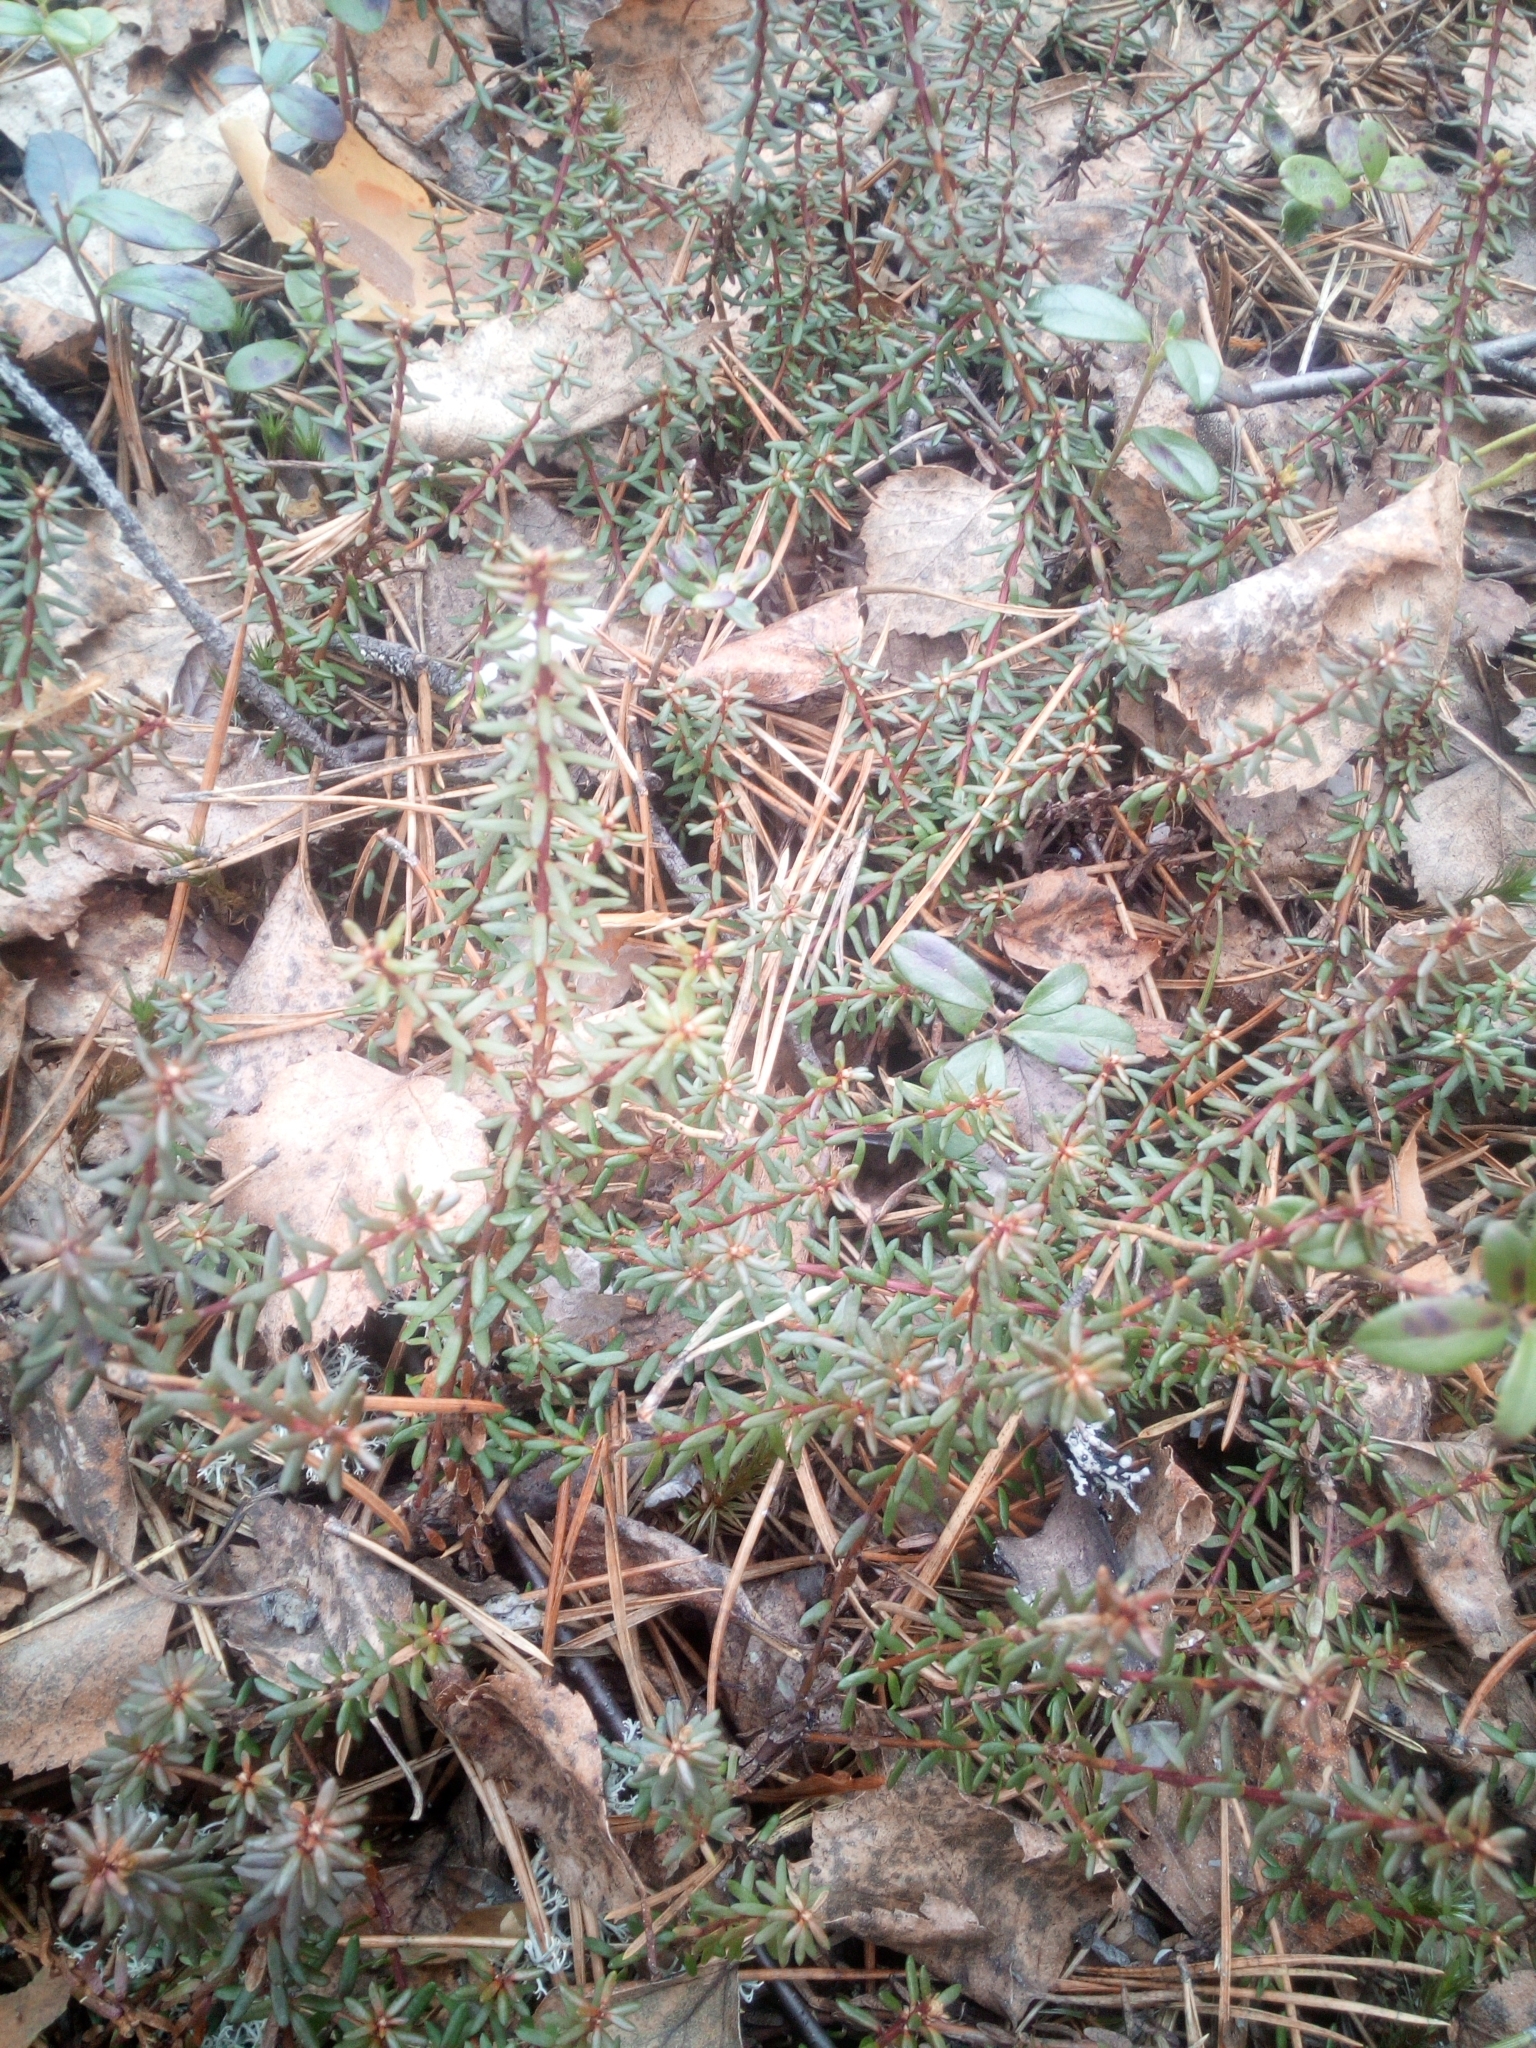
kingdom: Plantae
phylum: Tracheophyta
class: Magnoliopsida
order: Ericales
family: Ericaceae
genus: Empetrum
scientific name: Empetrum nigrum
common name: Black crowberry
